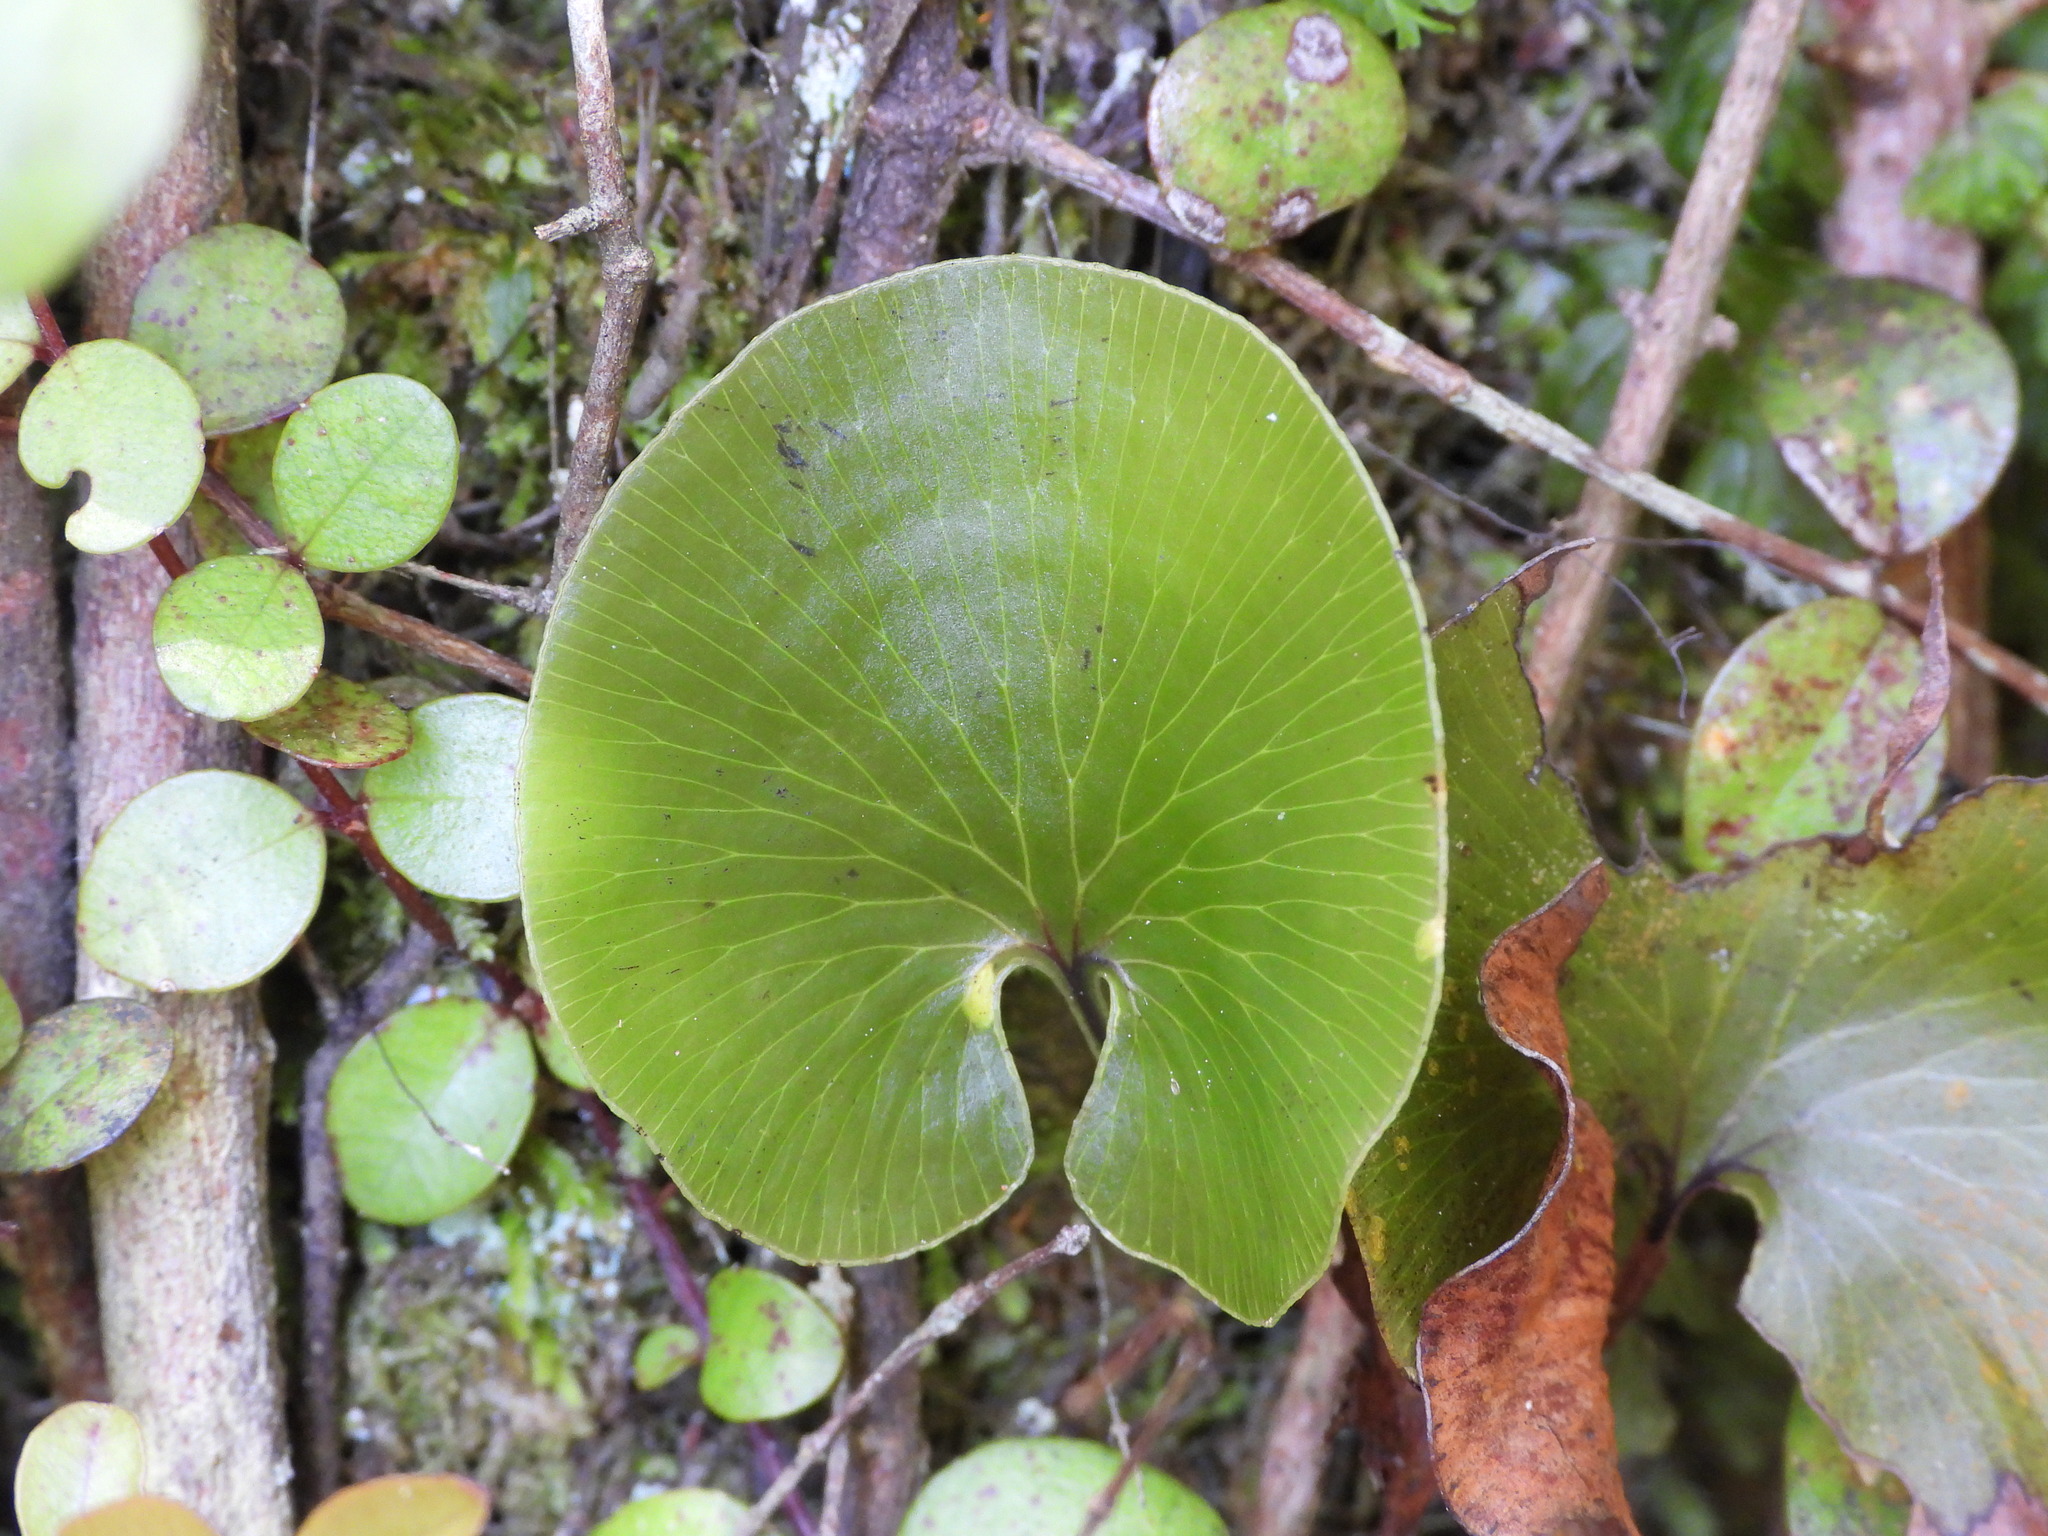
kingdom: Plantae
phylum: Tracheophyta
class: Polypodiopsida
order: Hymenophyllales
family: Hymenophyllaceae
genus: Hymenophyllum
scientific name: Hymenophyllum nephrophyllum
